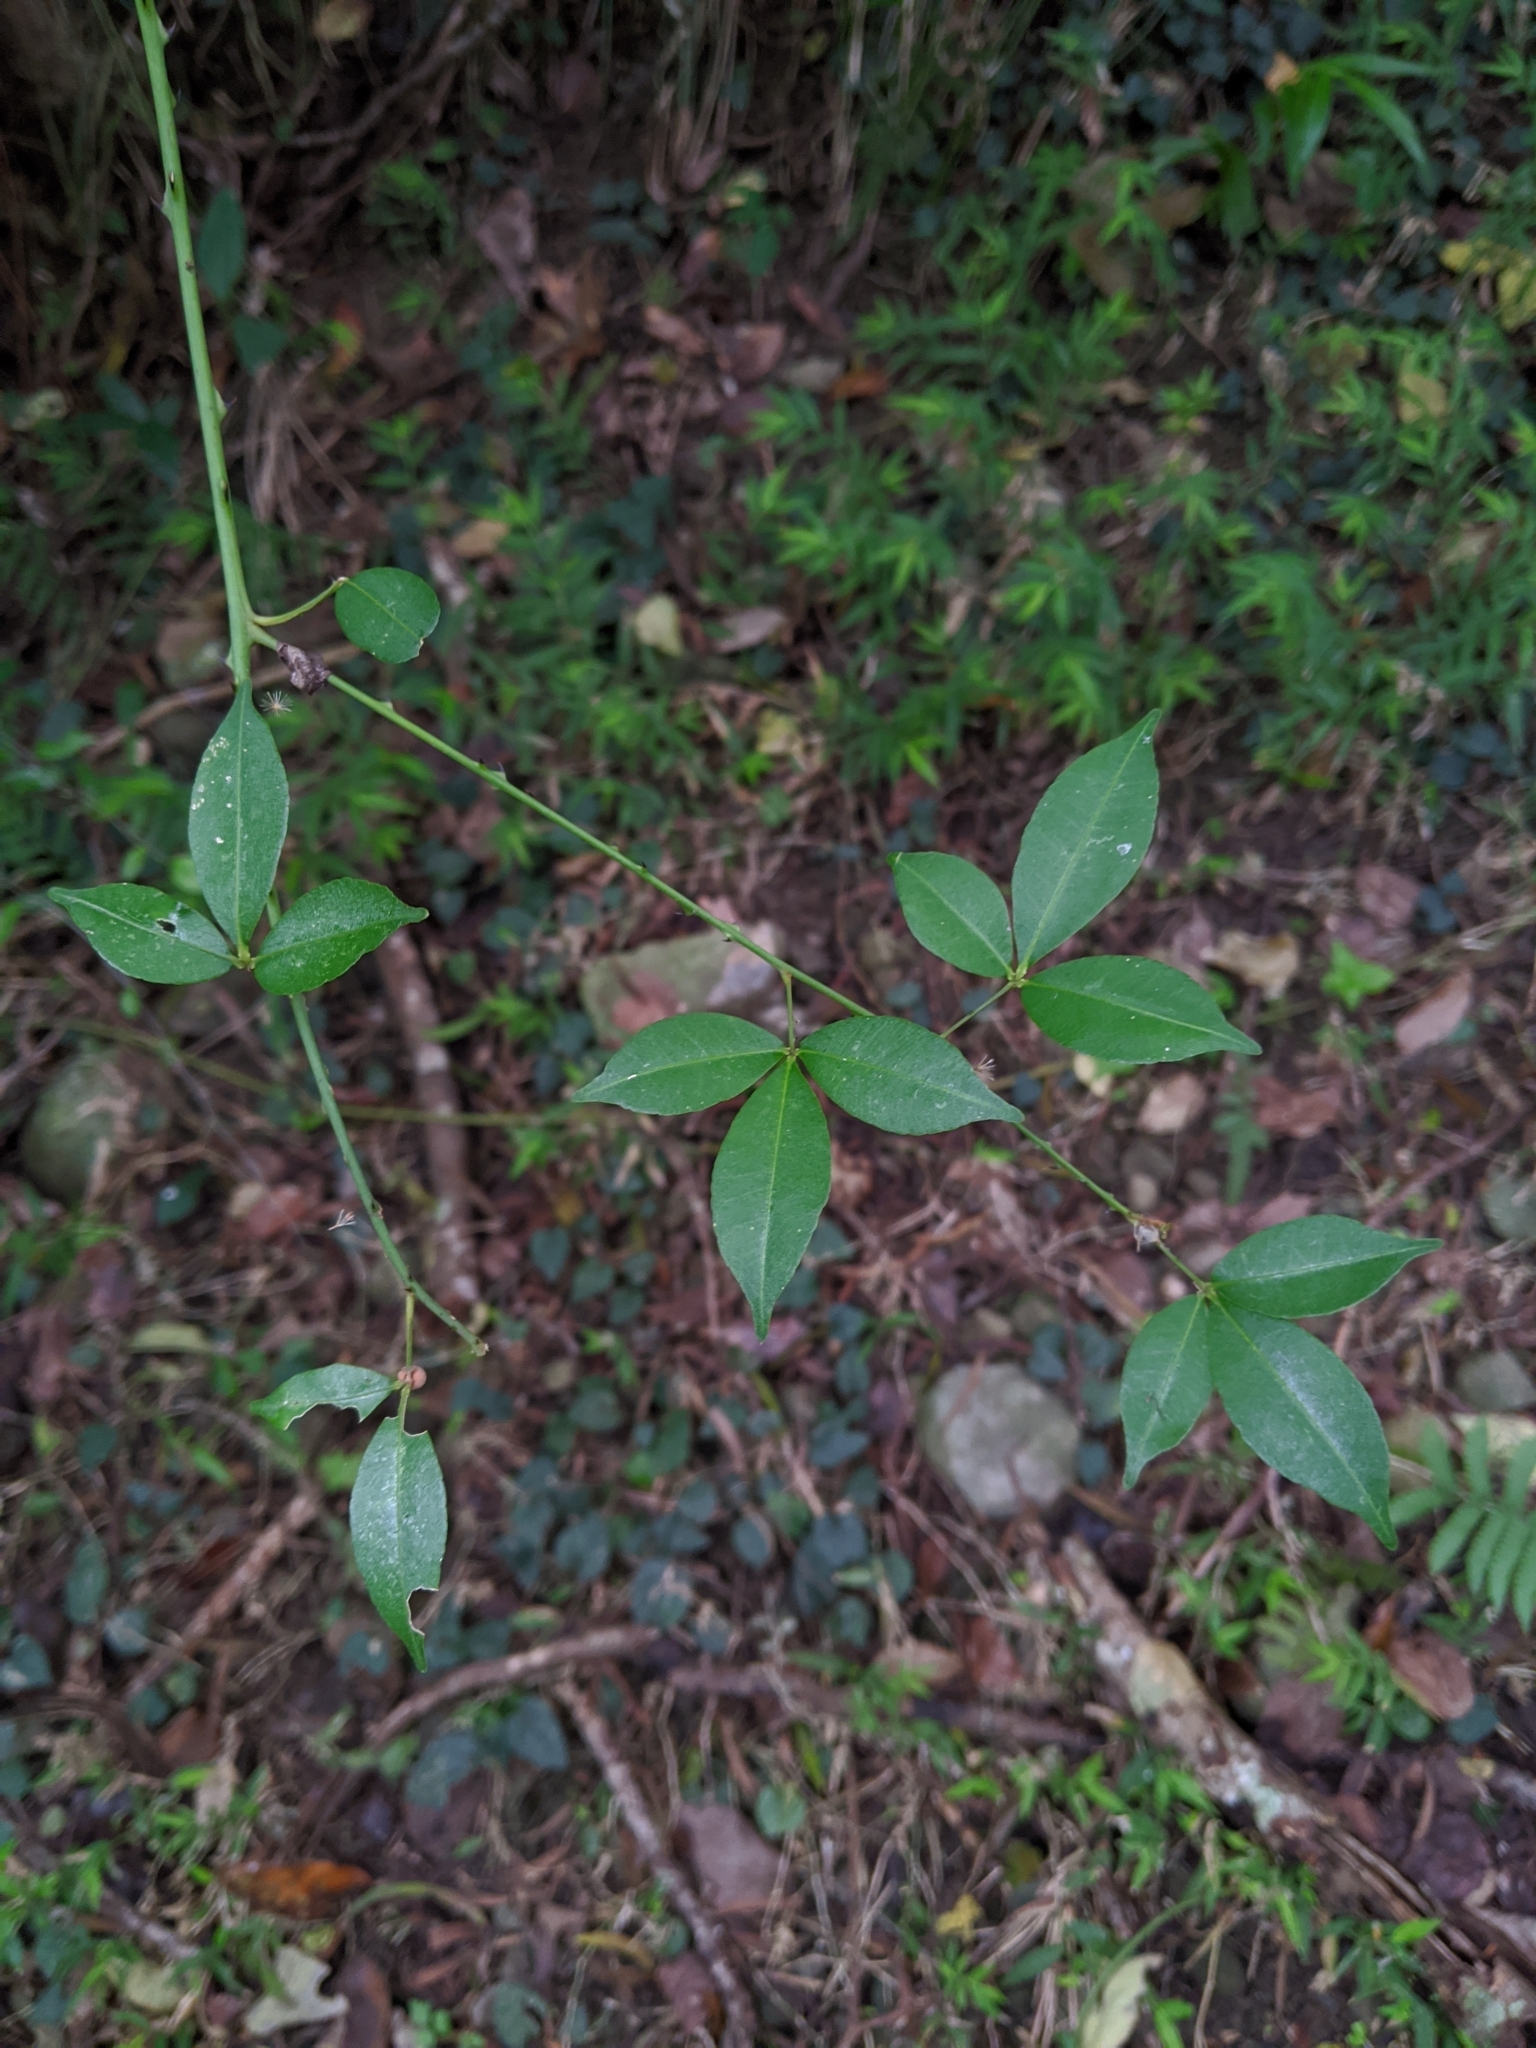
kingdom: Plantae
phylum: Tracheophyta
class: Magnoliopsida
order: Sapindales
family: Rutaceae
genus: Zanthoxylum
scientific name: Zanthoxylum asiaticum
